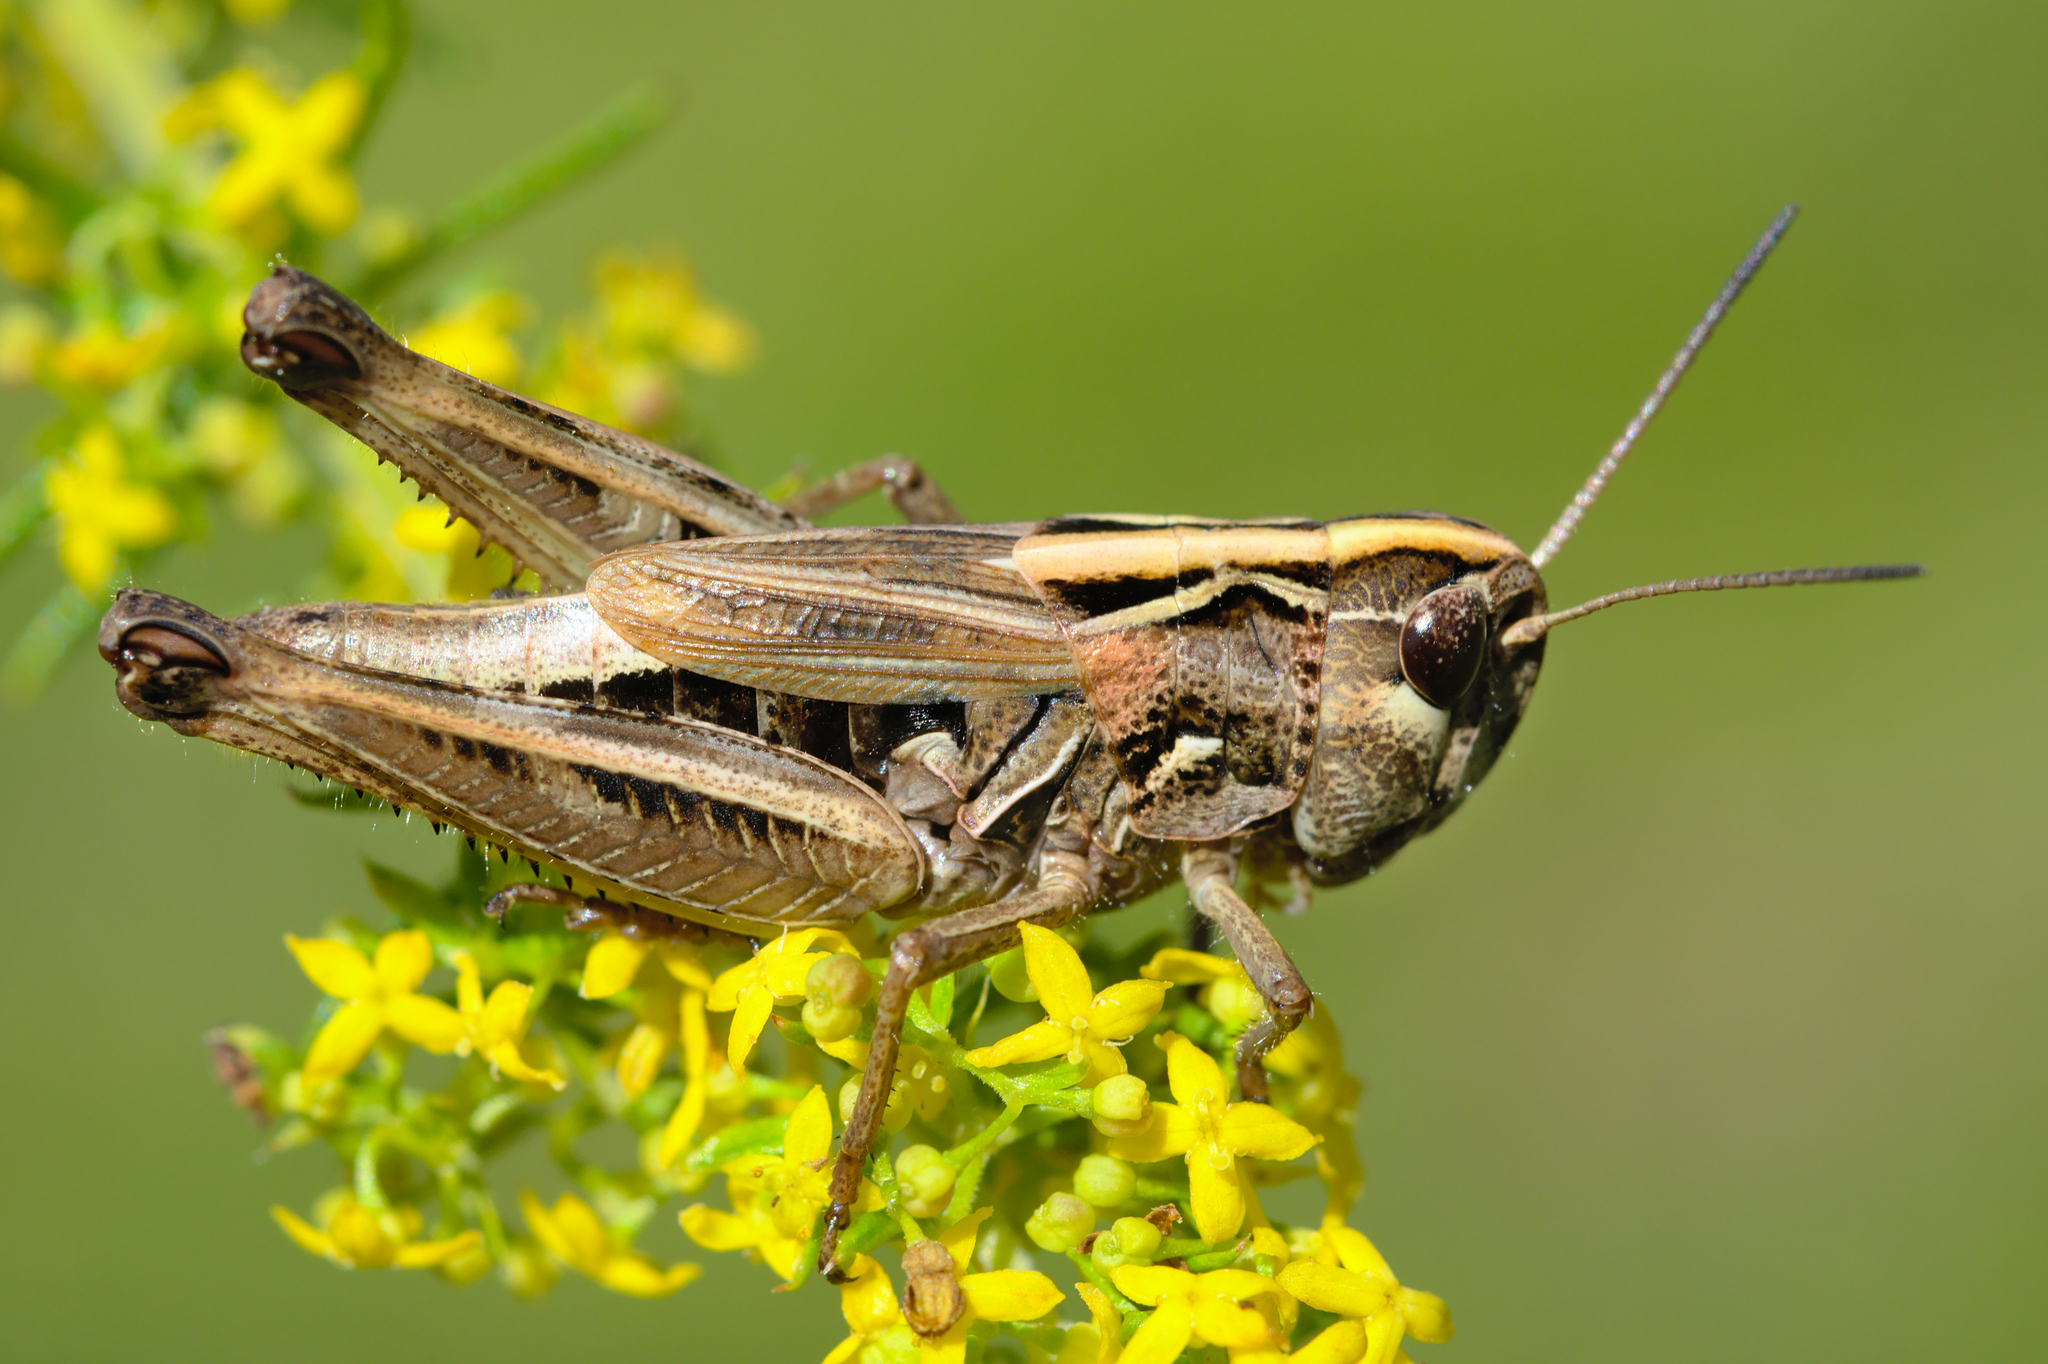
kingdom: Animalia
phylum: Arthropoda
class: Insecta
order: Orthoptera
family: Acrididae
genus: Omocestus
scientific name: Omocestus antigai
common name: Pyrenean grasshopper
